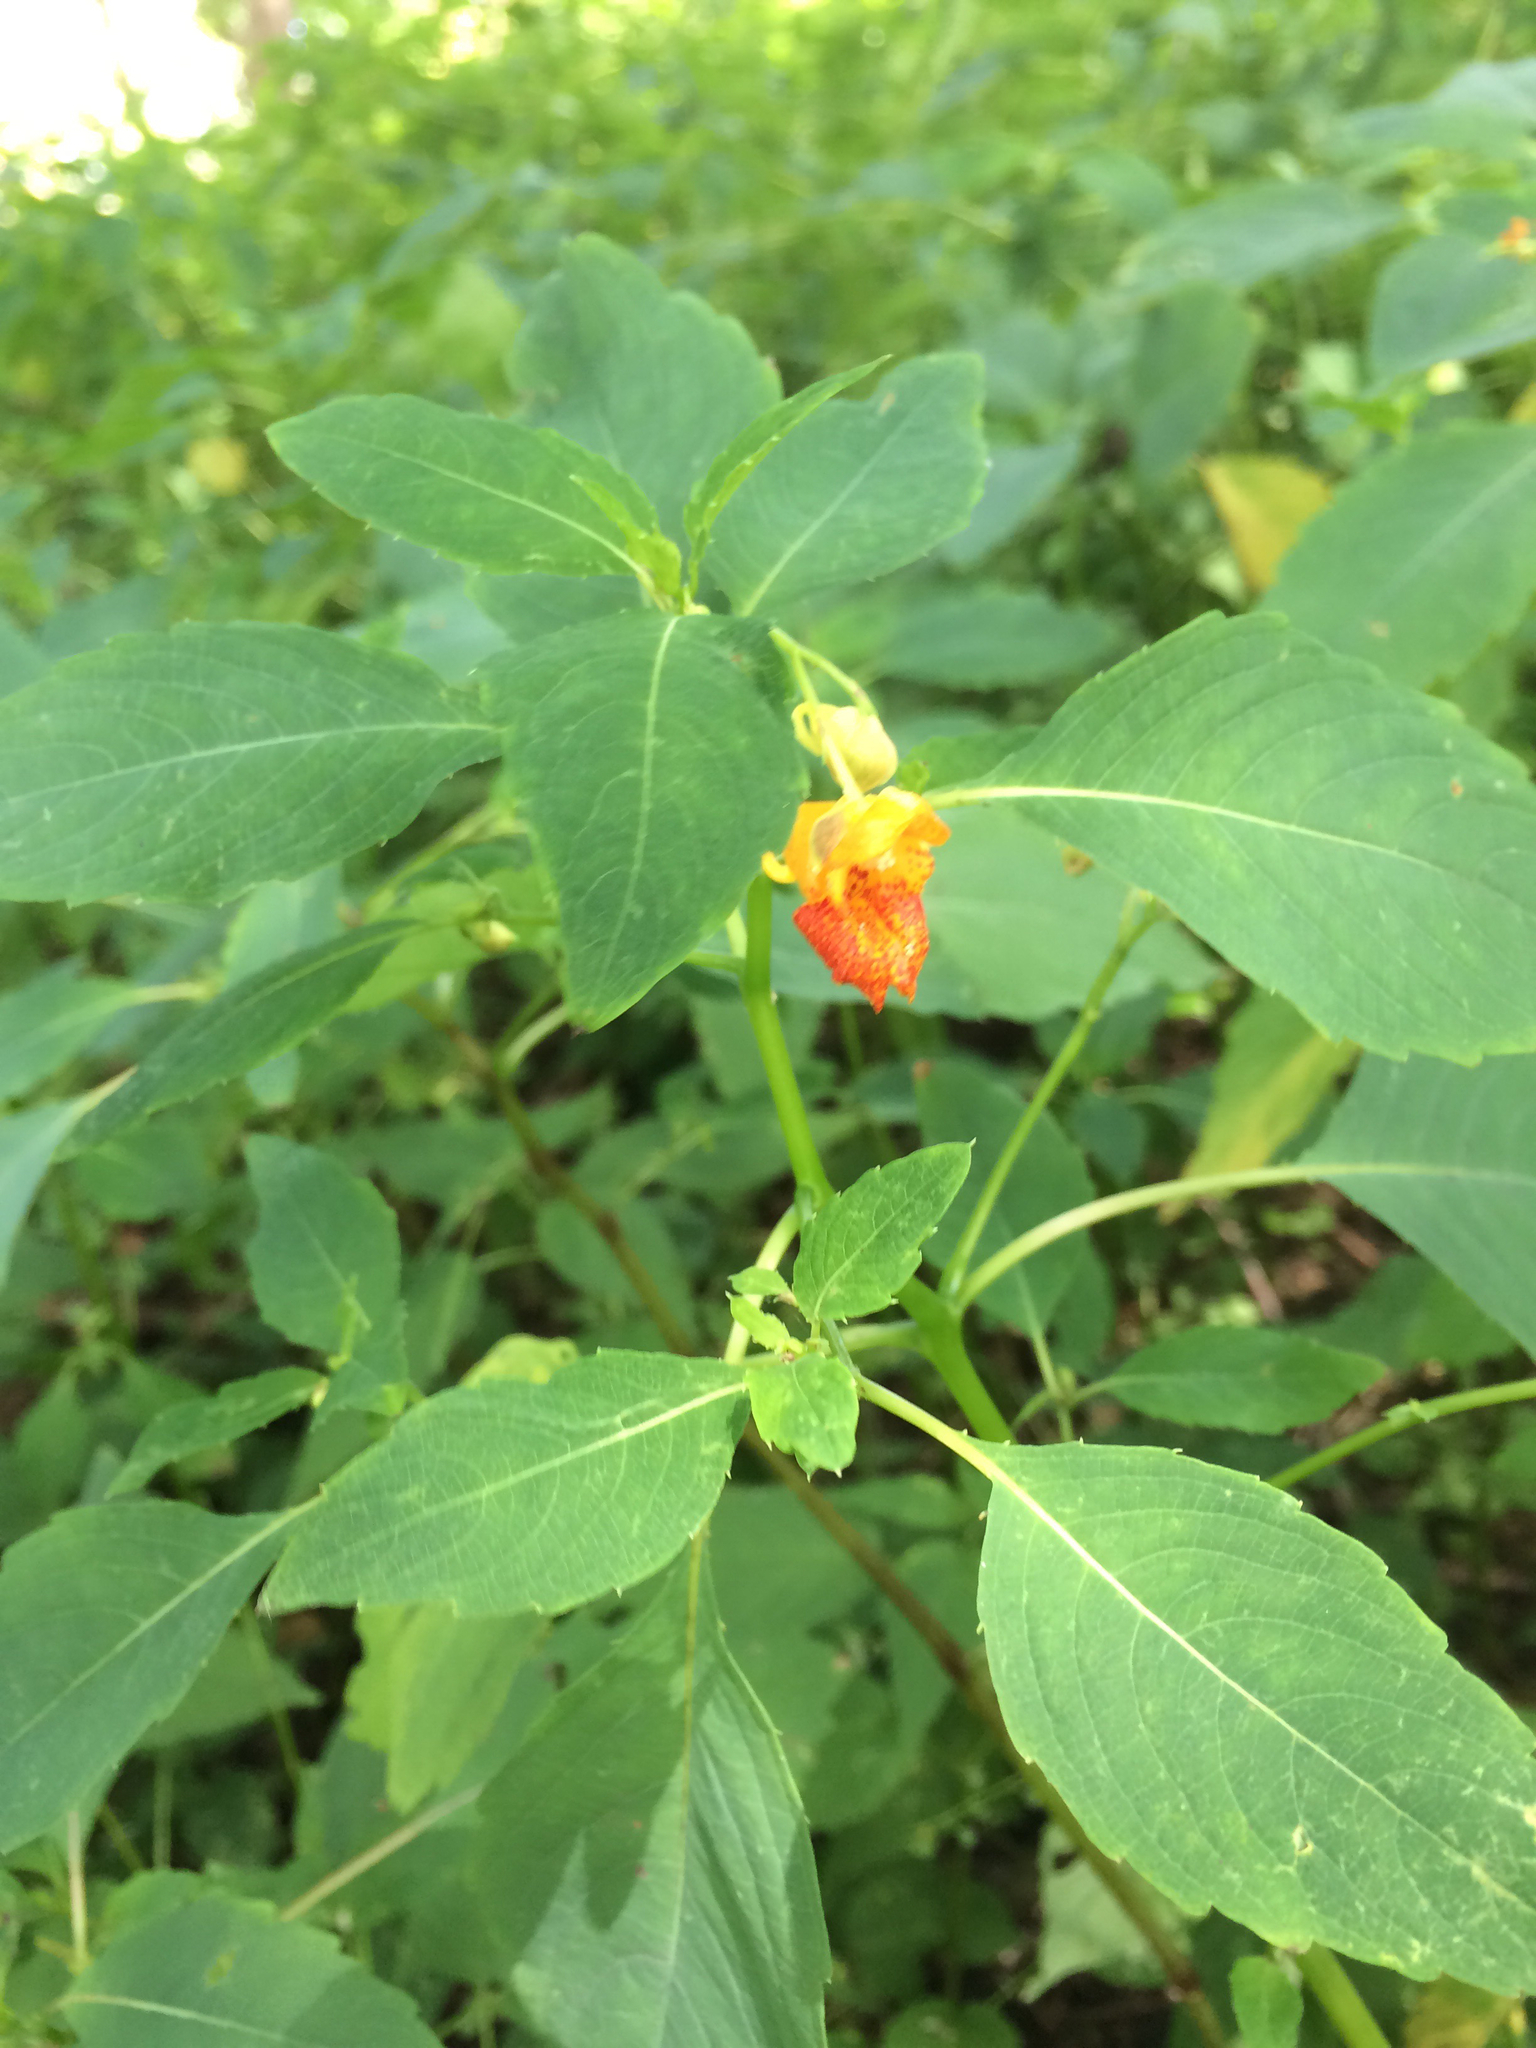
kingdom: Plantae
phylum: Tracheophyta
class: Magnoliopsida
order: Ericales
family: Balsaminaceae
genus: Impatiens
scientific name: Impatiens capensis
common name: Orange balsam
